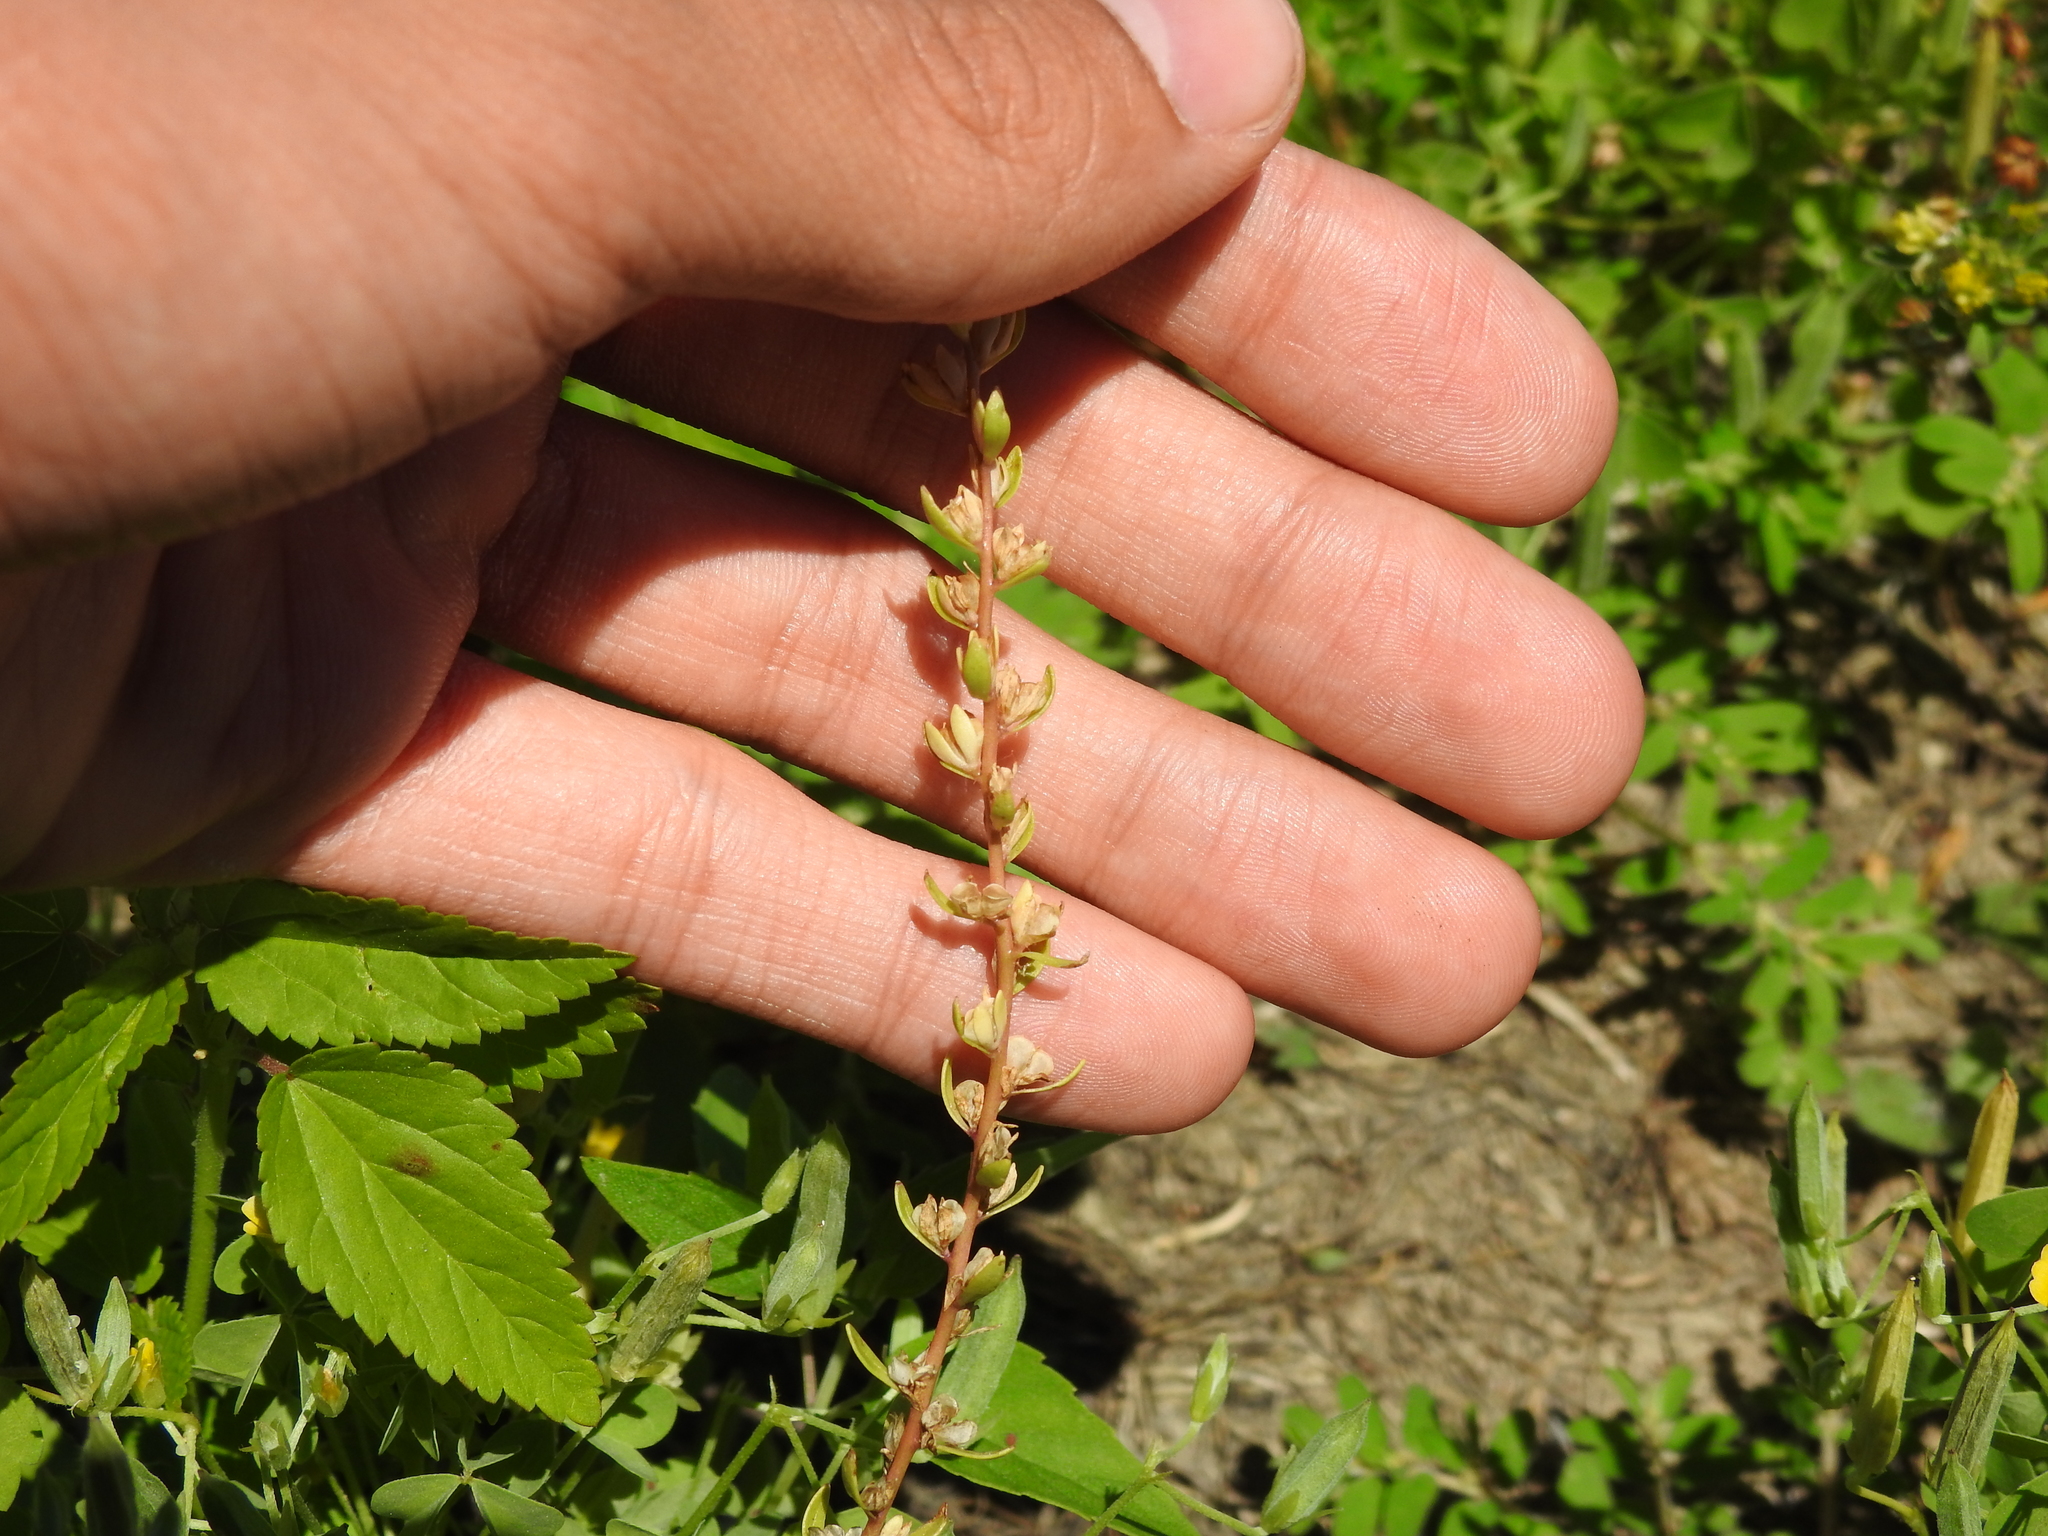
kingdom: Plantae
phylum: Tracheophyta
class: Magnoliopsida
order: Lamiales
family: Plantaginaceae
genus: Veronica
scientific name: Veronica peregrina
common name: Neckweed
